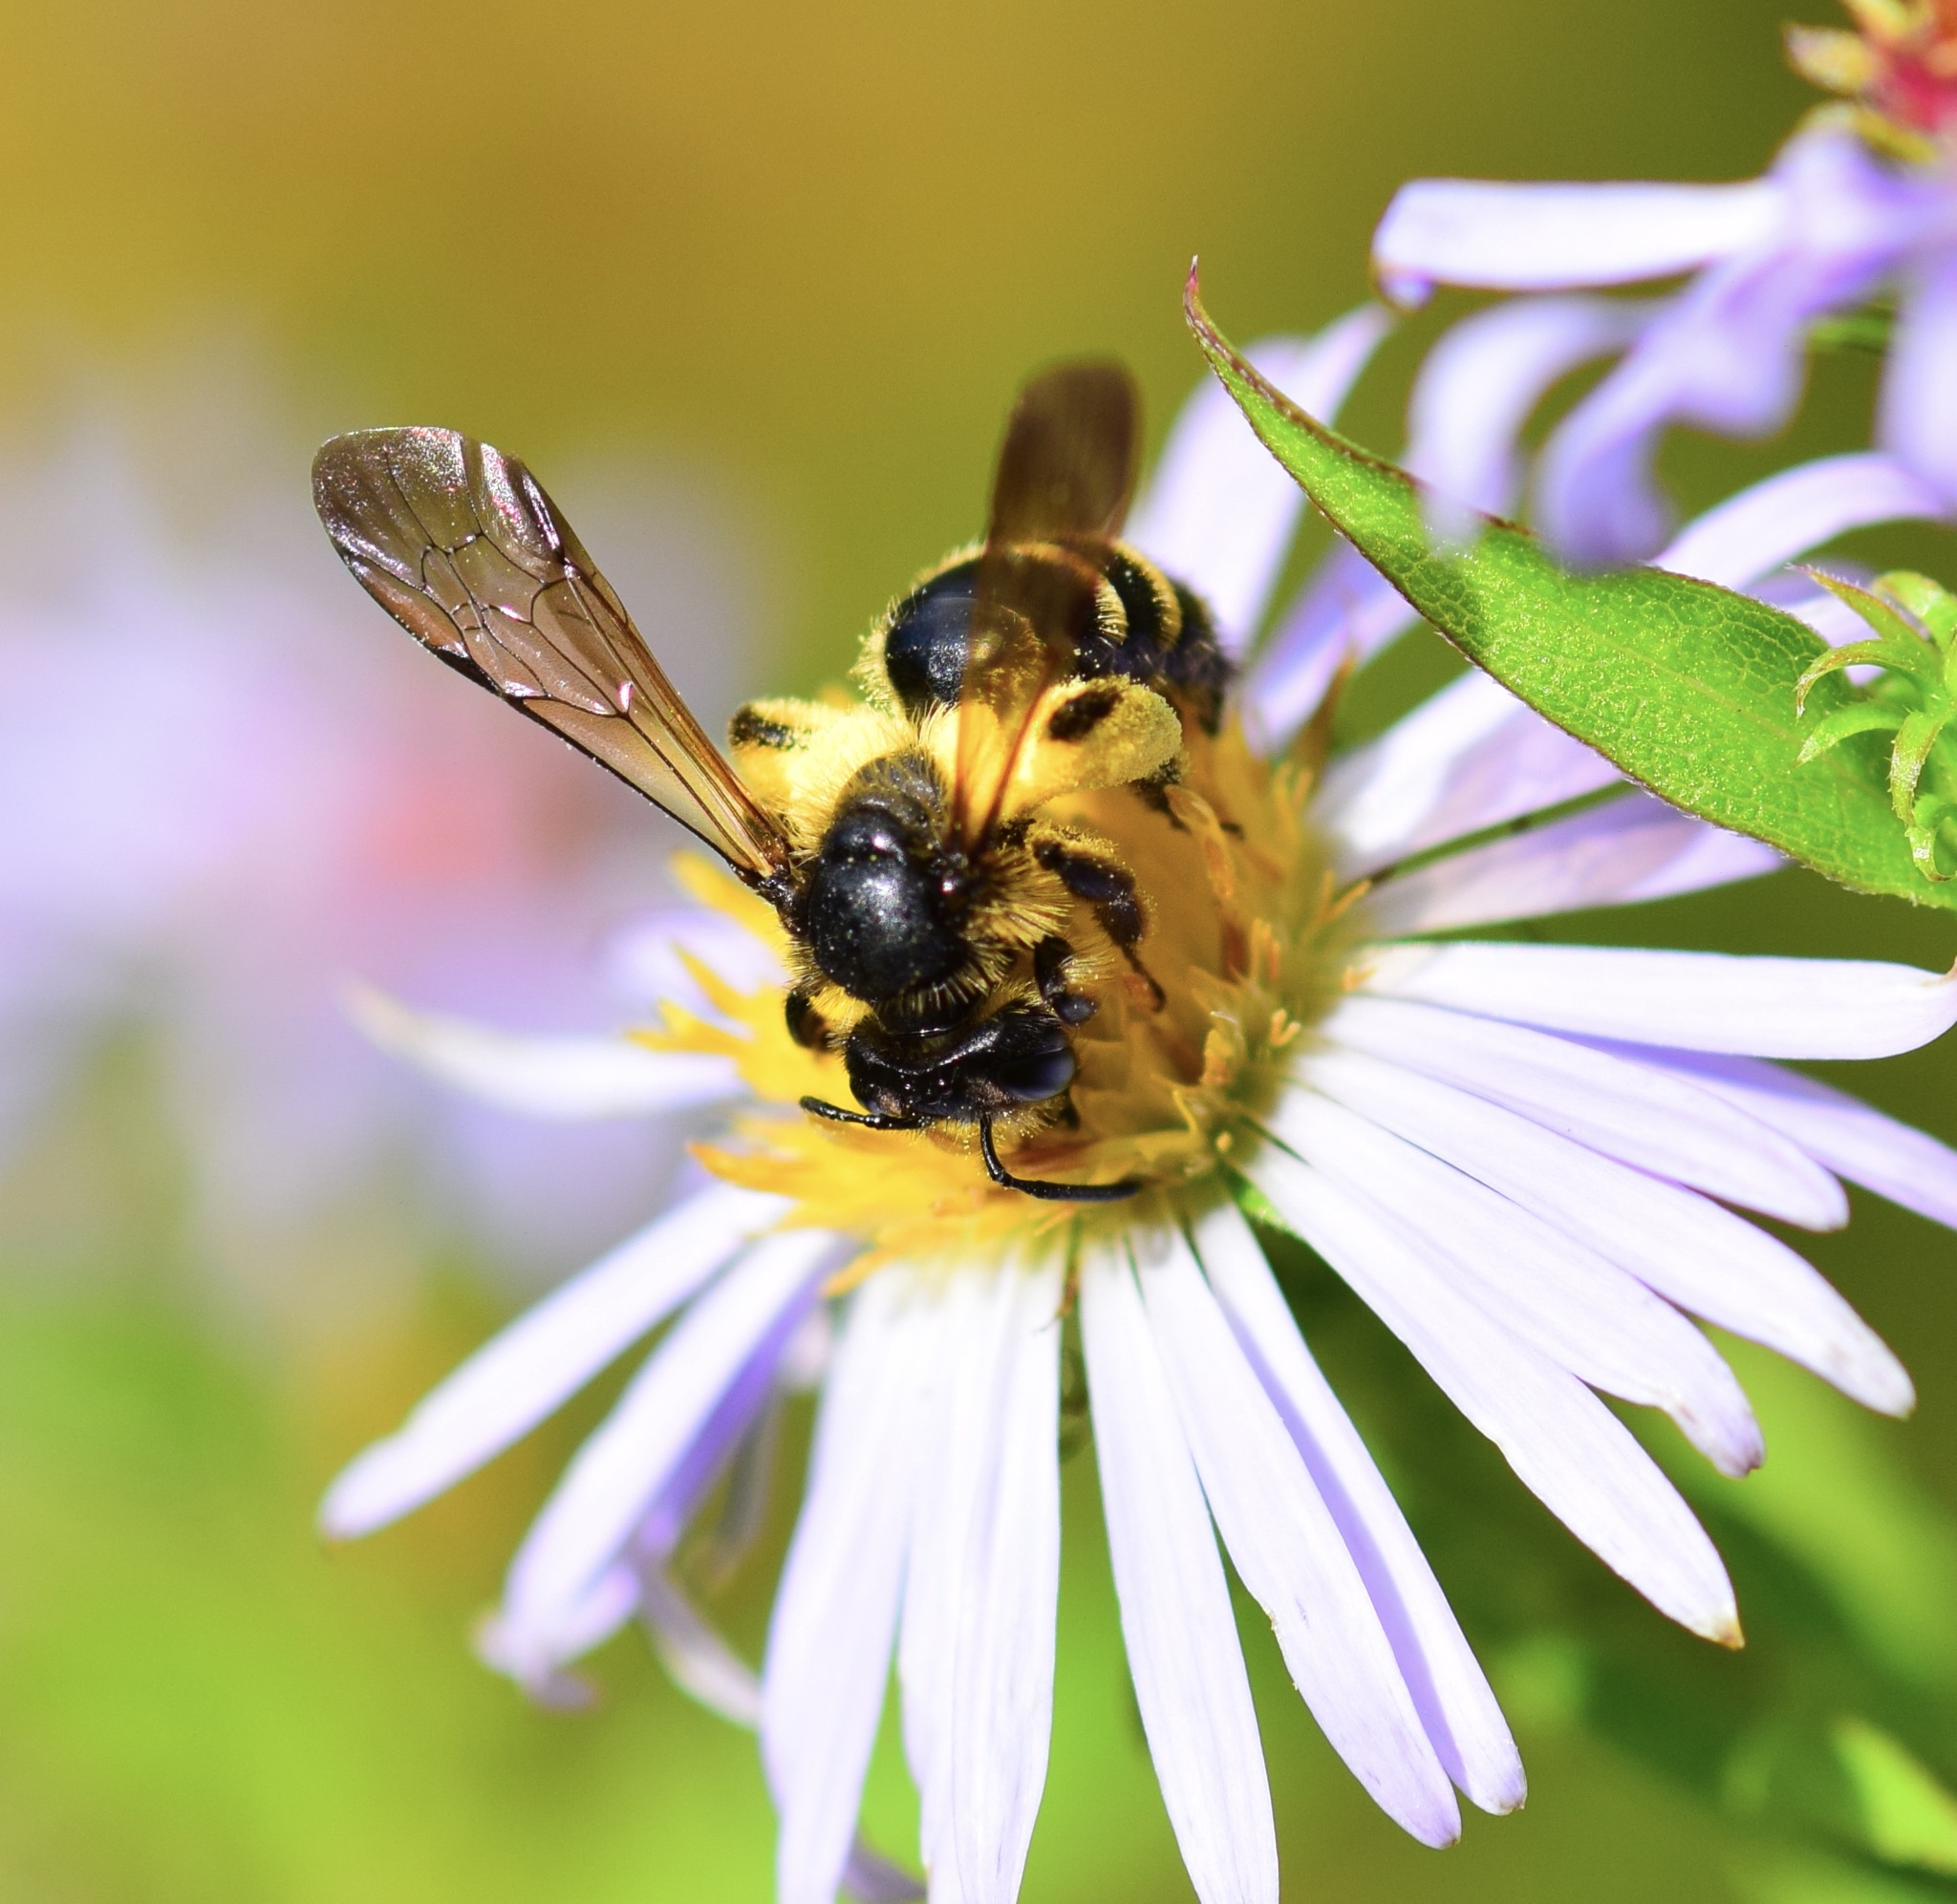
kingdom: Animalia
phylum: Arthropoda
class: Insecta
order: Hymenoptera
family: Andrenidae
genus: Andrena
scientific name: Andrena robervalensis
